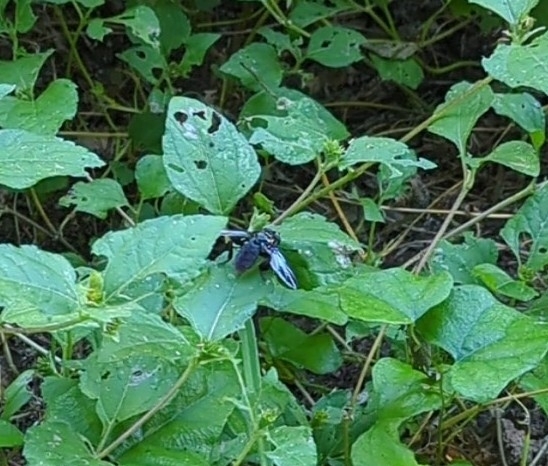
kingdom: Animalia
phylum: Arthropoda
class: Insecta
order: Diptera
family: Tachinidae
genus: Trichopoda
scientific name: Trichopoda lanipes
